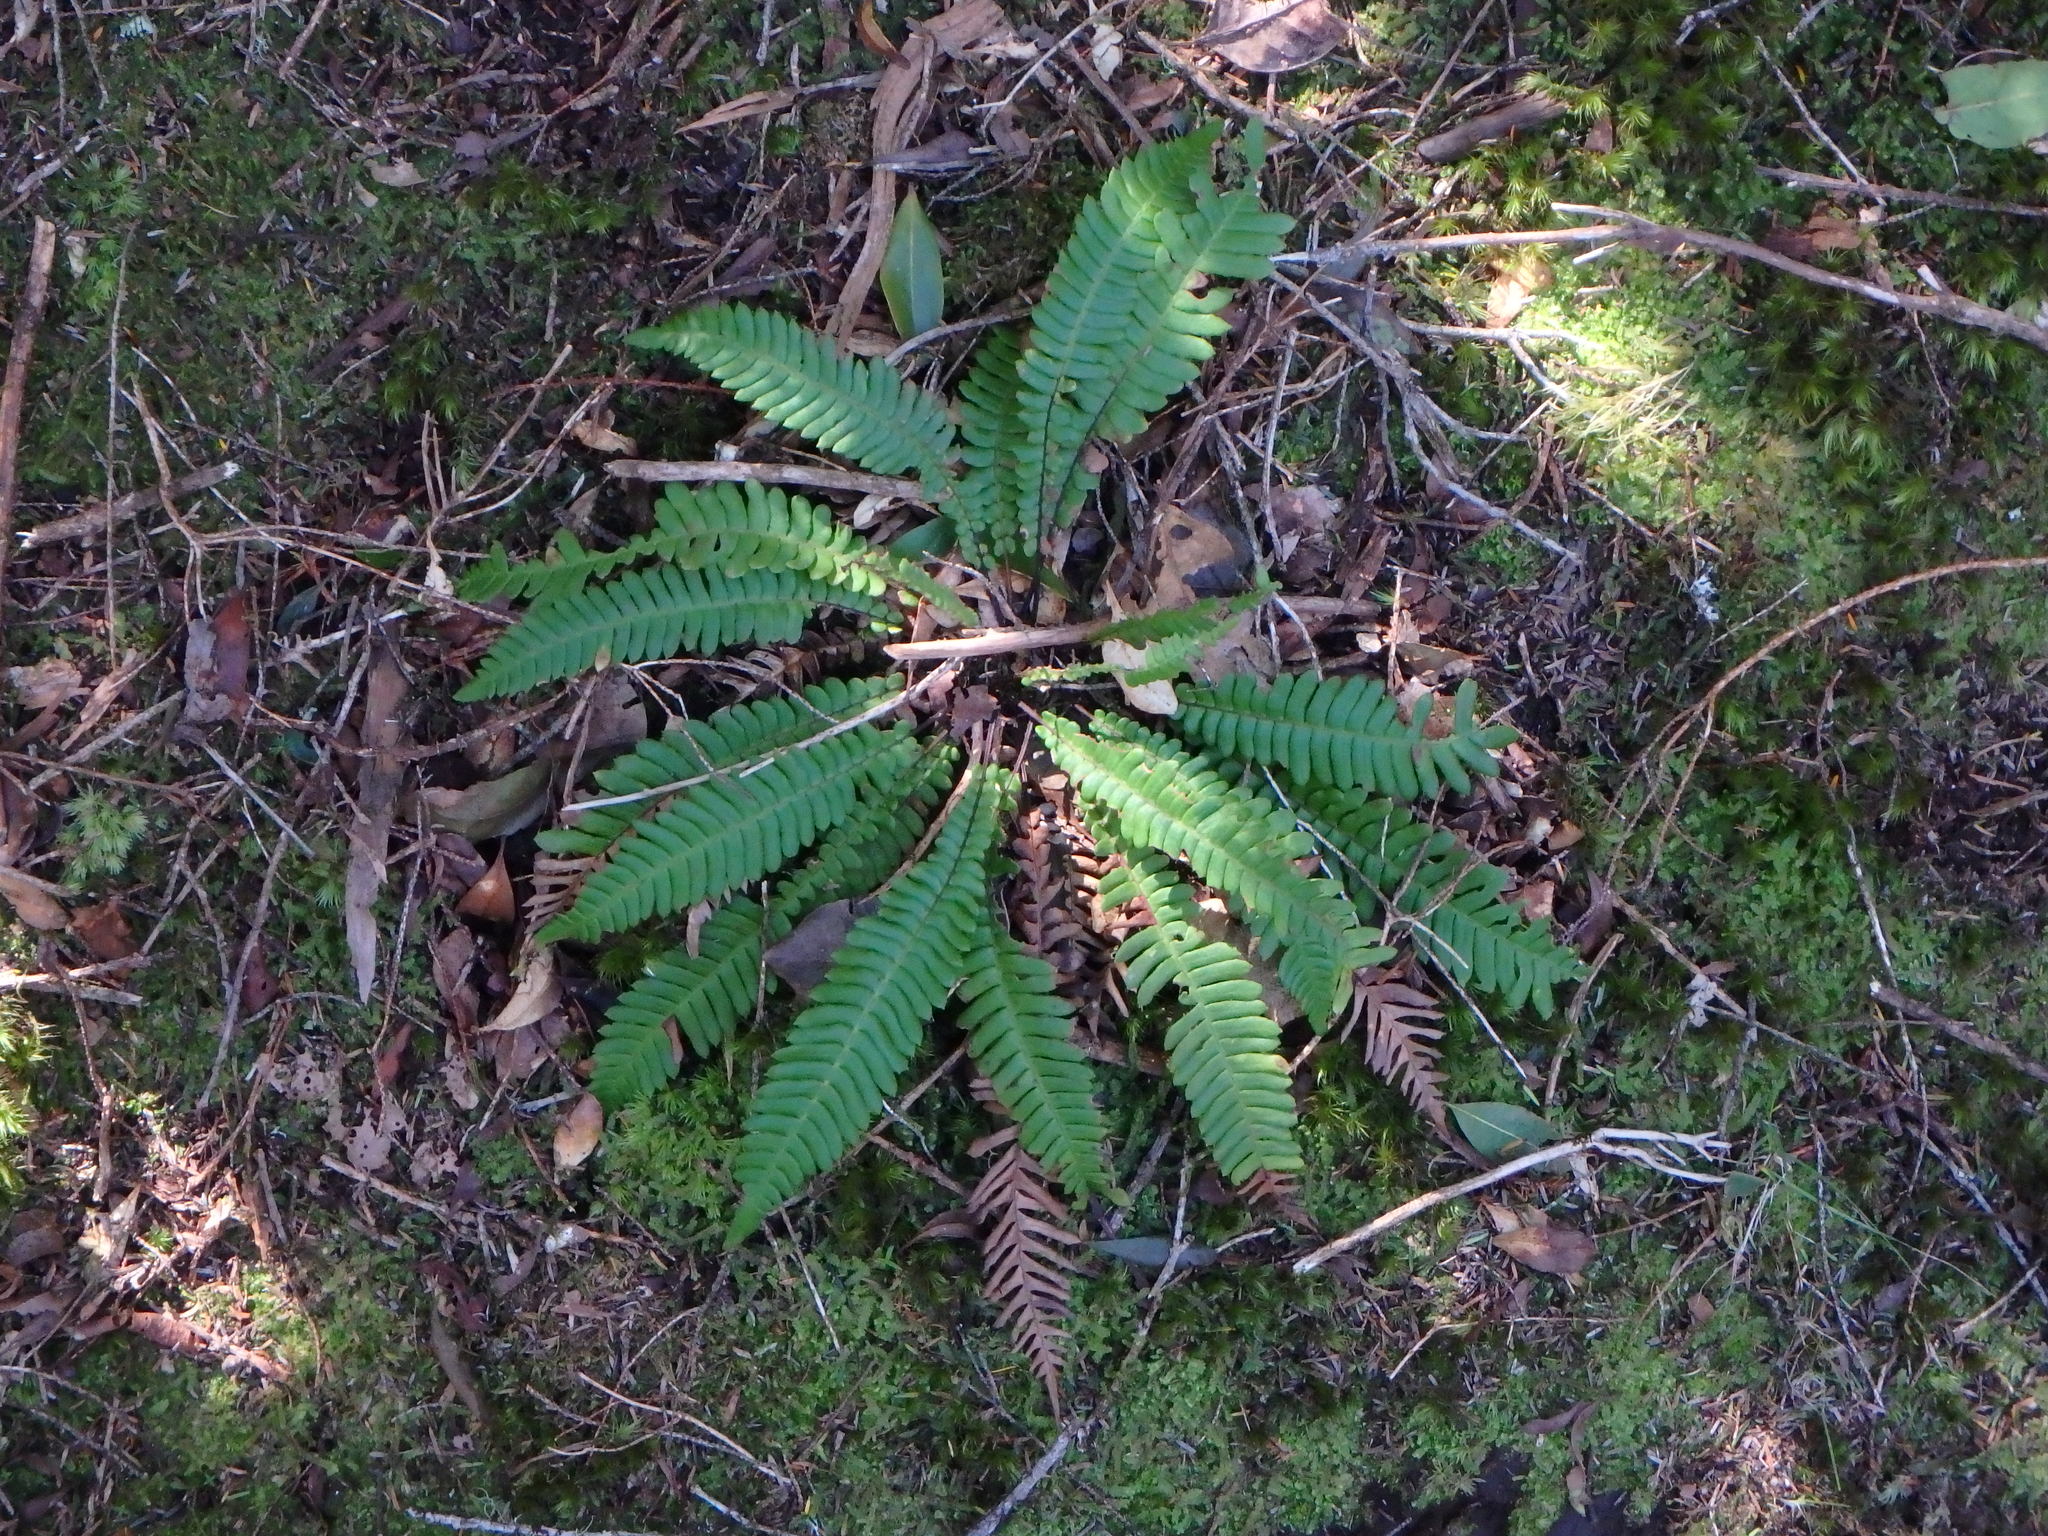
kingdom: Plantae
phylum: Tracheophyta
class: Polypodiopsida
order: Polypodiales
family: Blechnaceae
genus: Struthiopteris
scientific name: Struthiopteris spicant
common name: Deer fern
